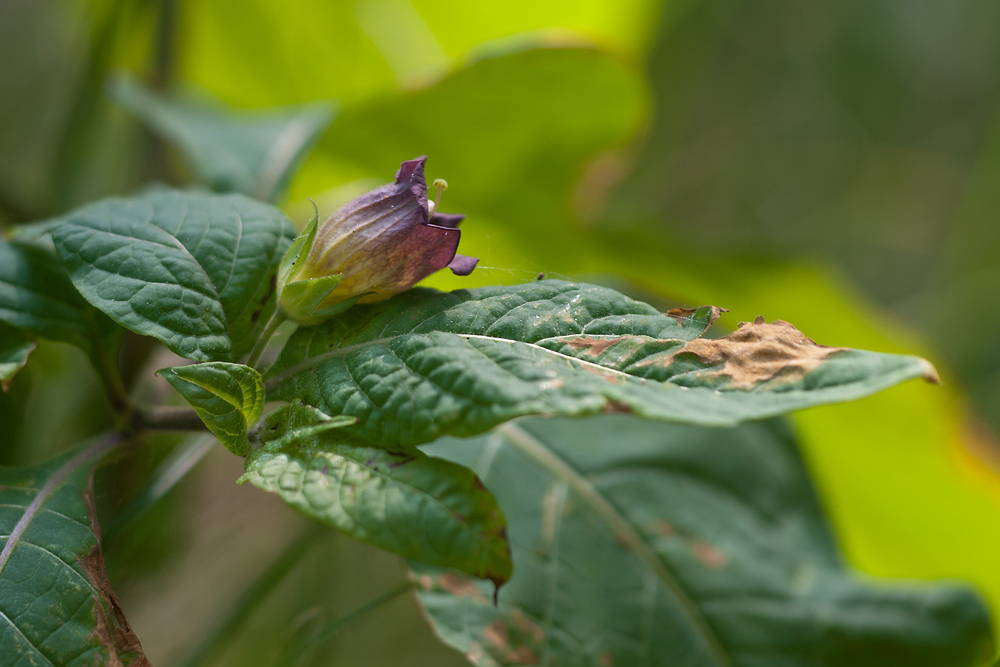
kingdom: Plantae
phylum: Tracheophyta
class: Magnoliopsida
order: Solanales
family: Solanaceae
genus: Atropa
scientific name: Atropa belladonna
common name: Deadly nightshade
